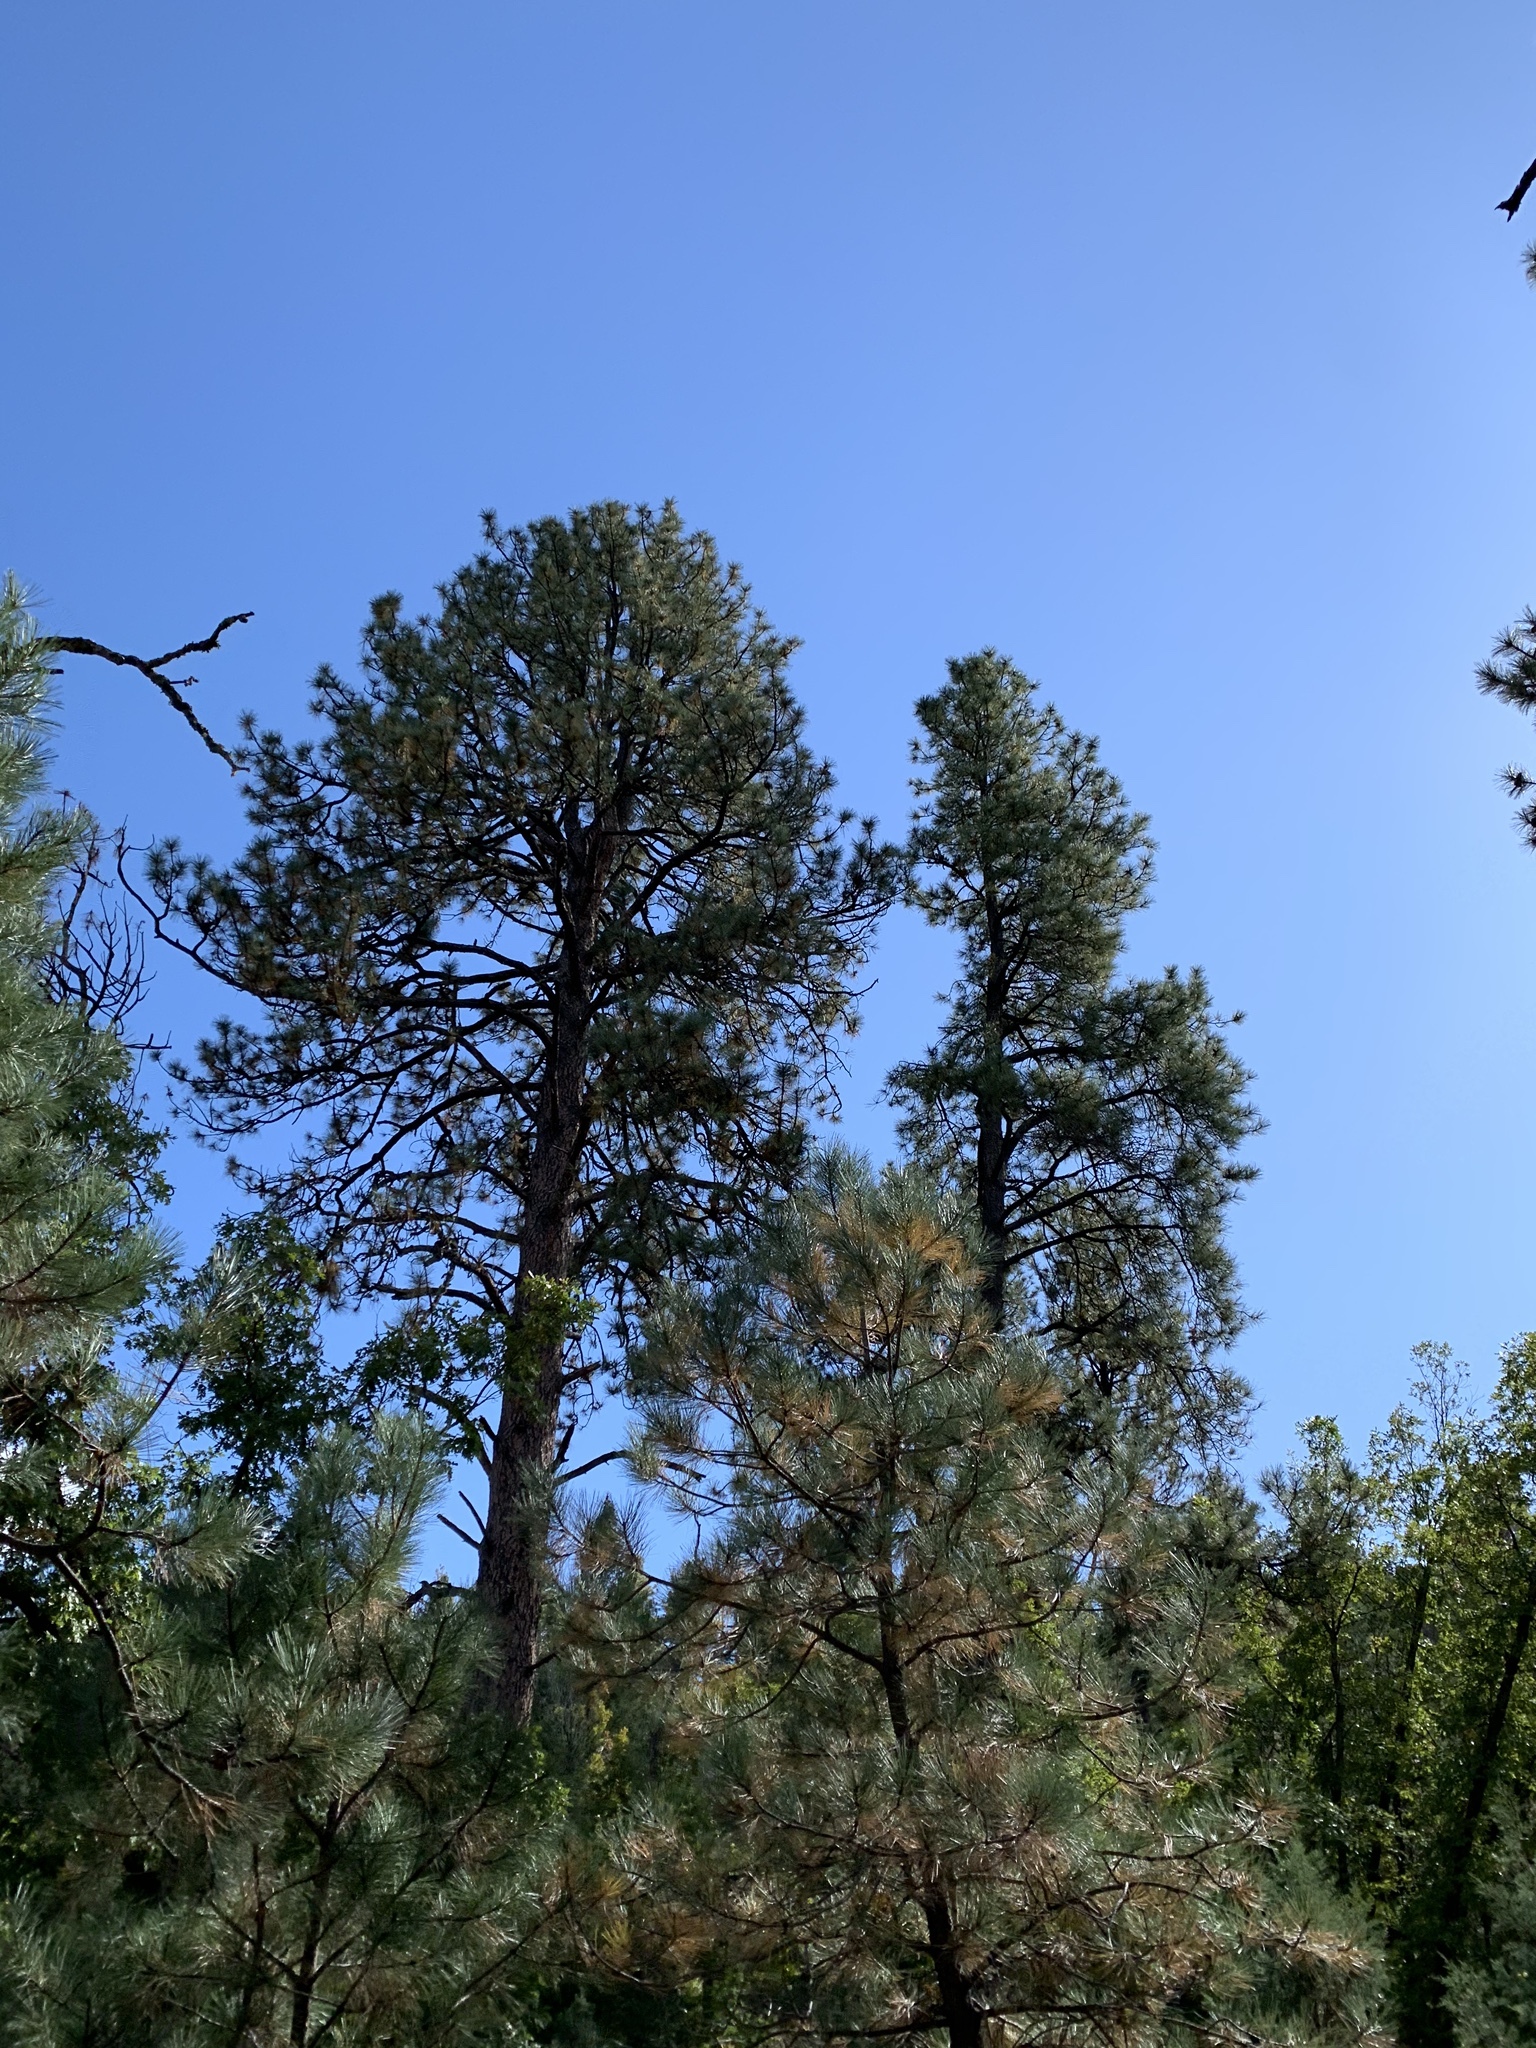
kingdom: Plantae
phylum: Tracheophyta
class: Pinopsida
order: Pinales
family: Pinaceae
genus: Pinus
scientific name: Pinus ponderosa
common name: Western yellow-pine
